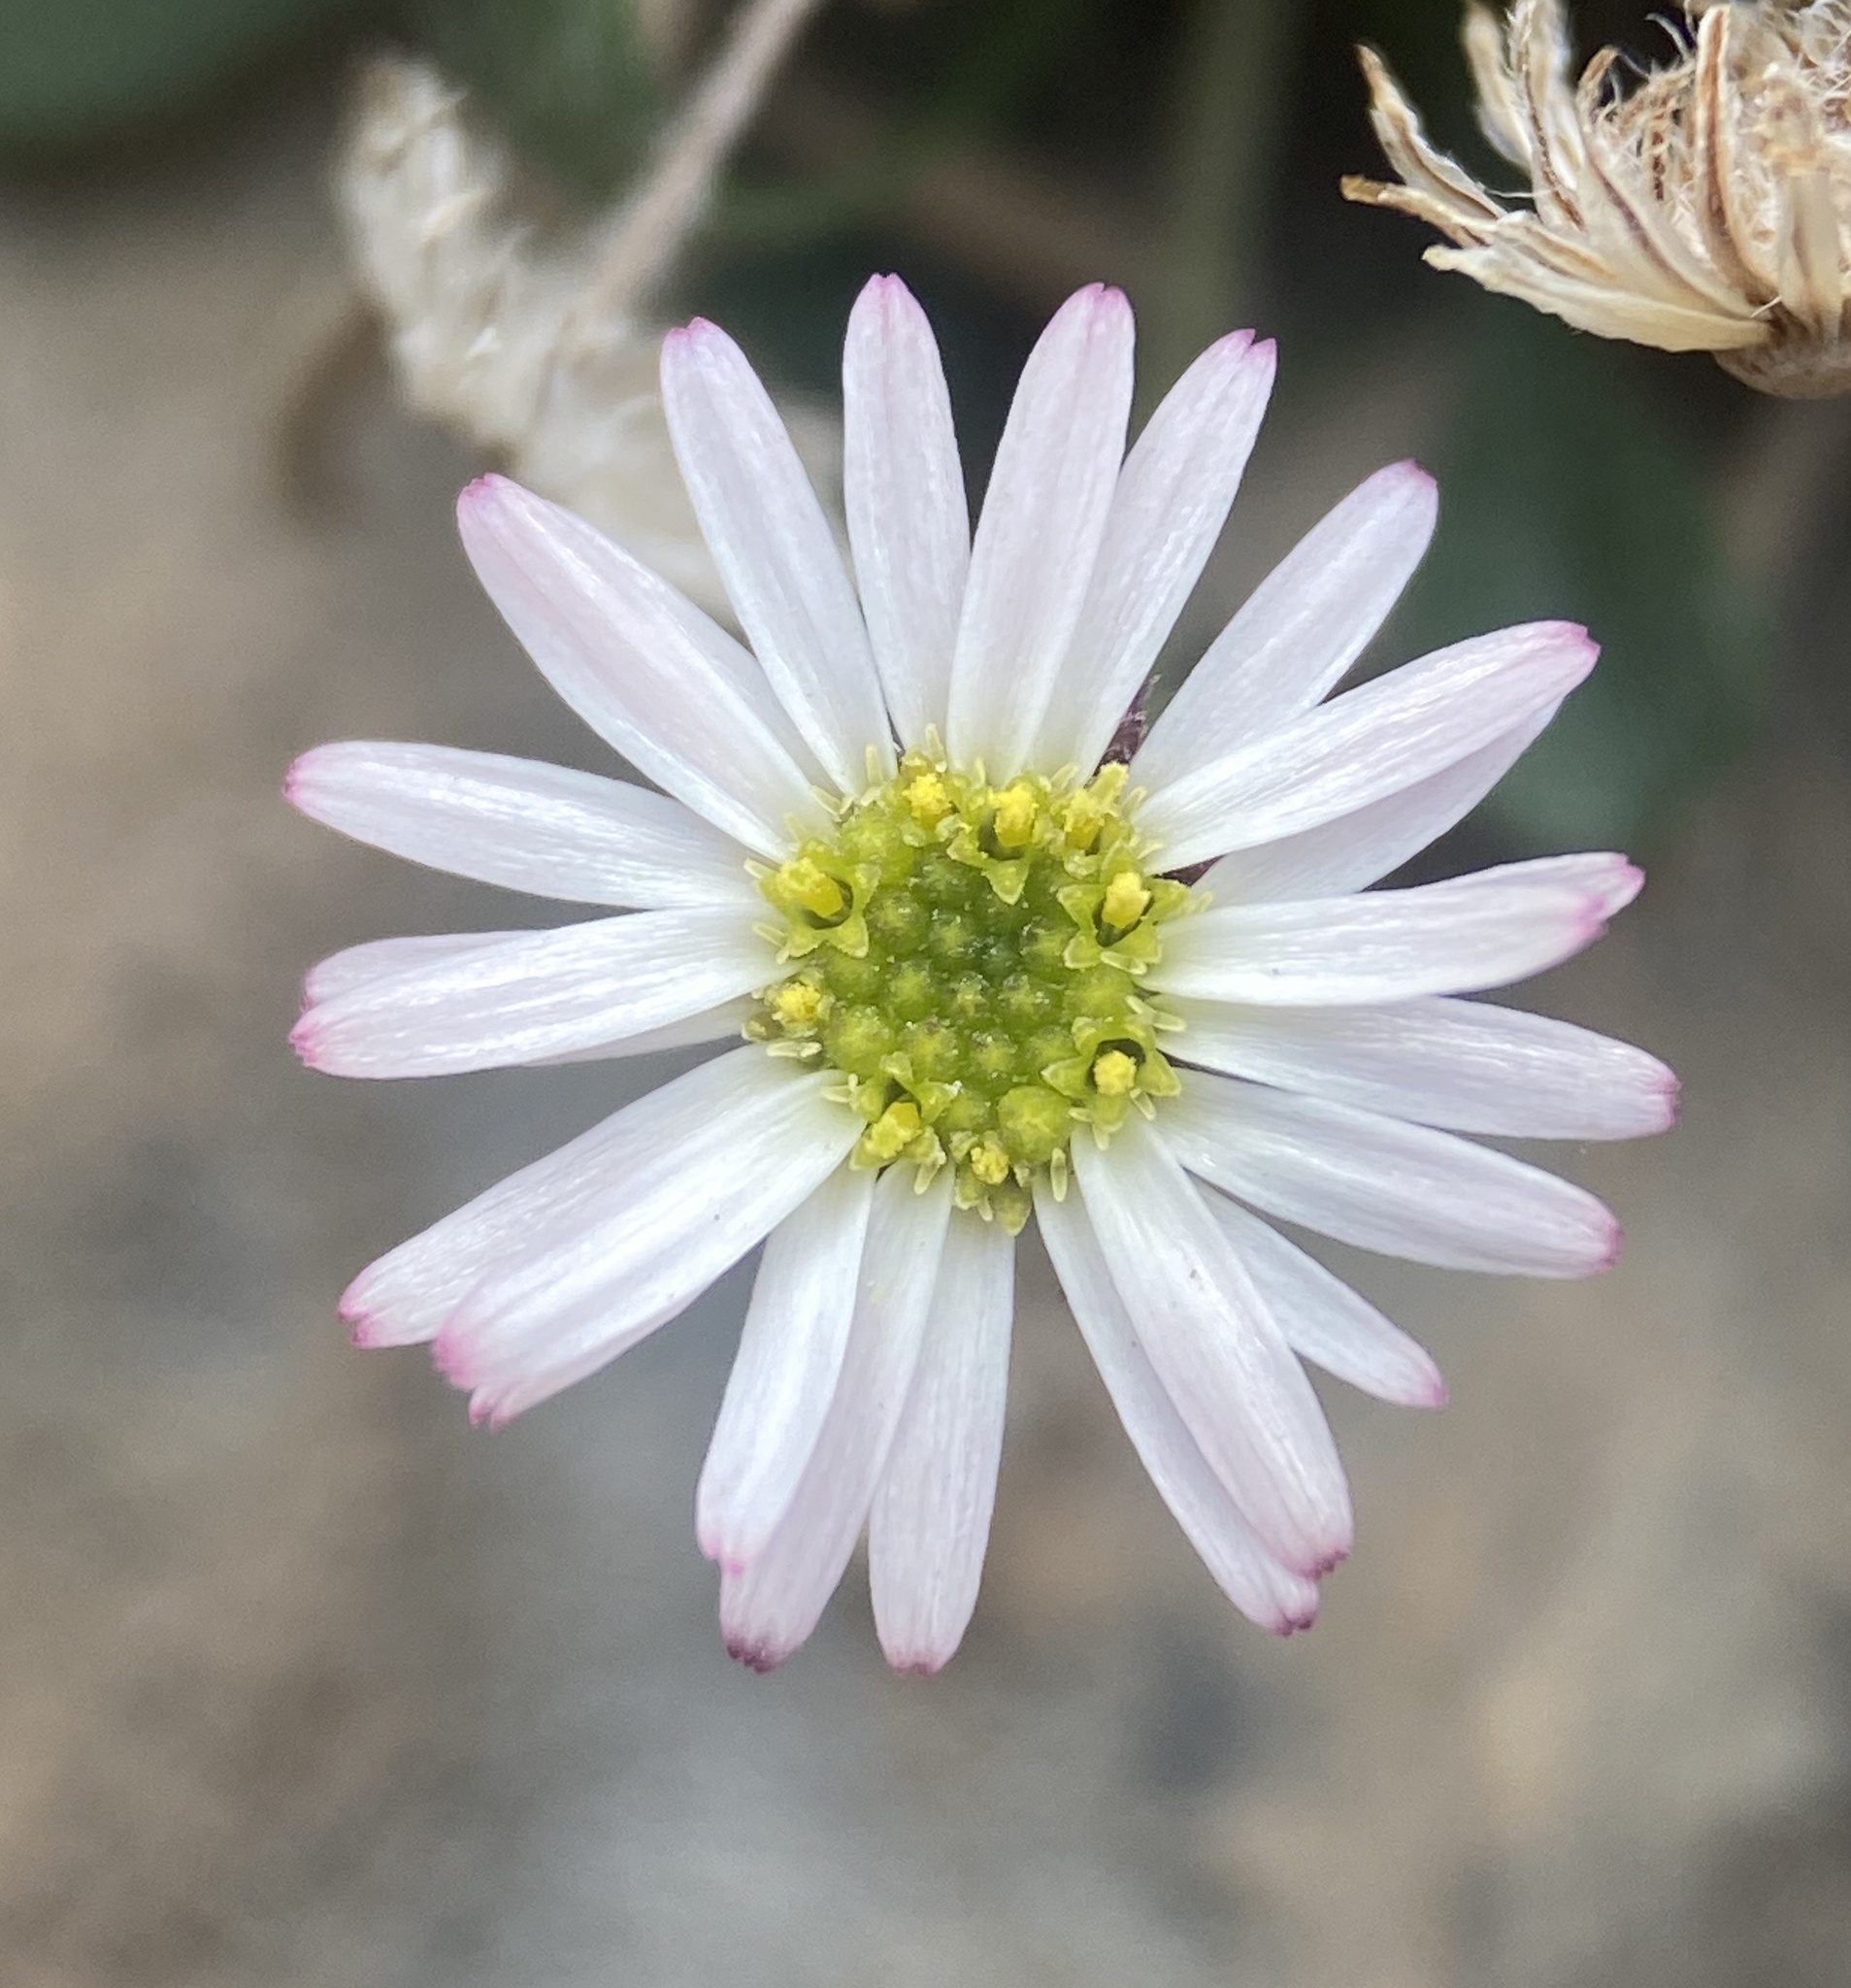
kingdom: Plantae
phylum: Tracheophyta
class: Magnoliopsida
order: Asterales
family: Asteraceae
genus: Erigeron
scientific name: Erigeron uncialis
